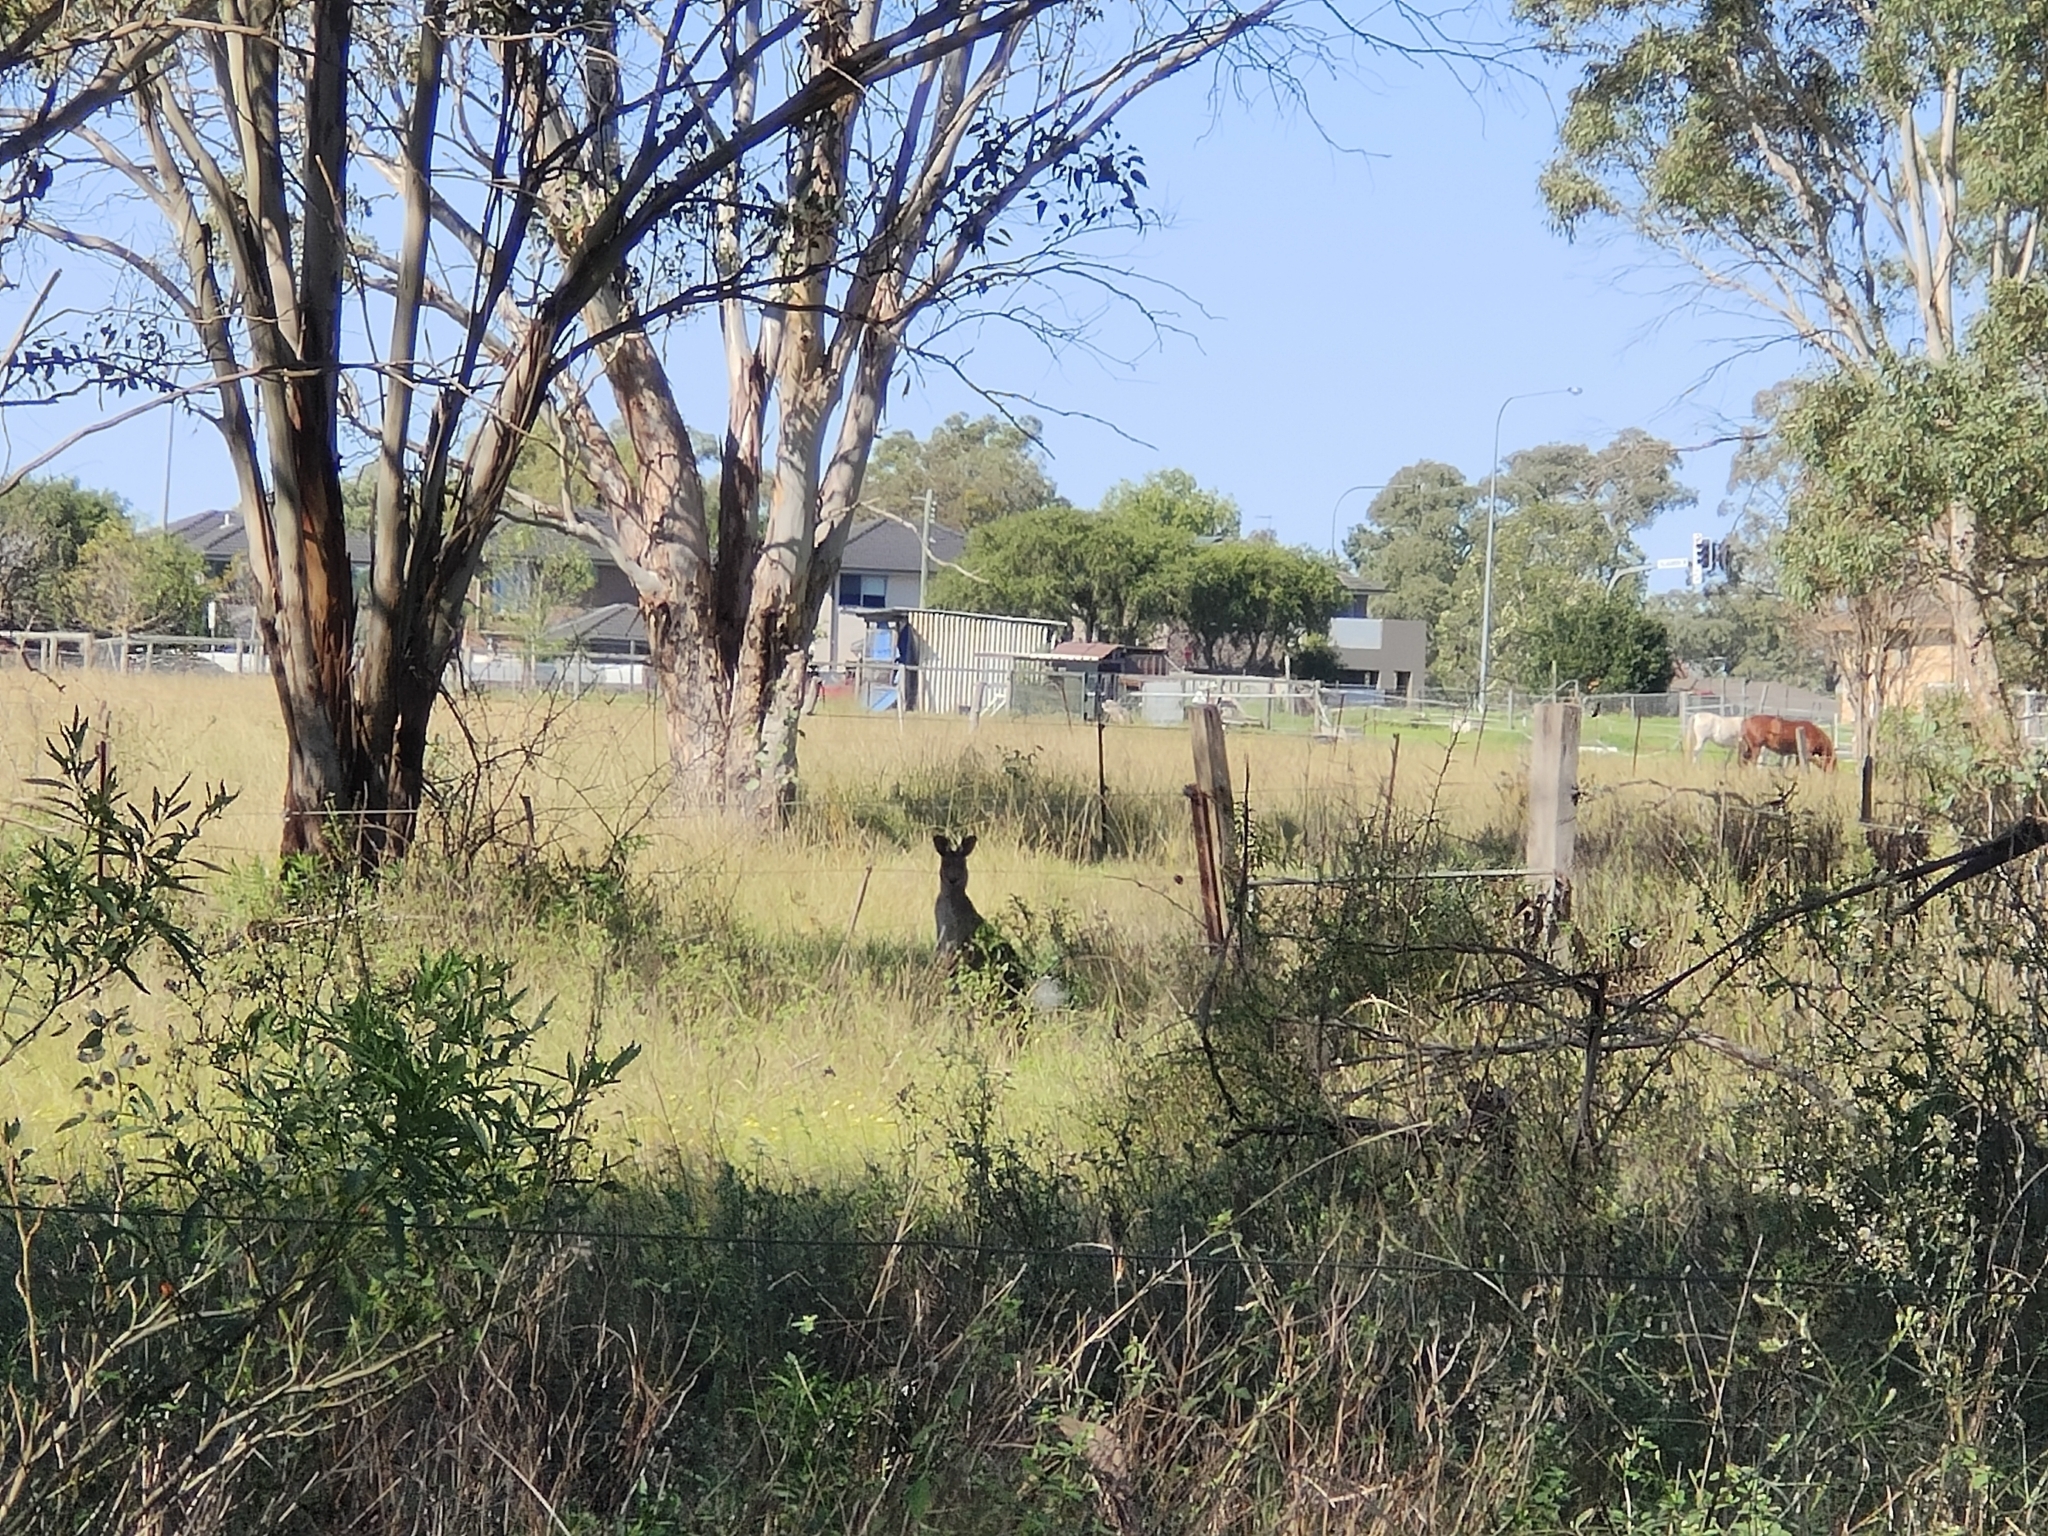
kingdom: Animalia
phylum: Chordata
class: Mammalia
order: Diprotodontia
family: Macropodidae
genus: Macropus
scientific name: Macropus giganteus
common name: Eastern grey kangaroo
